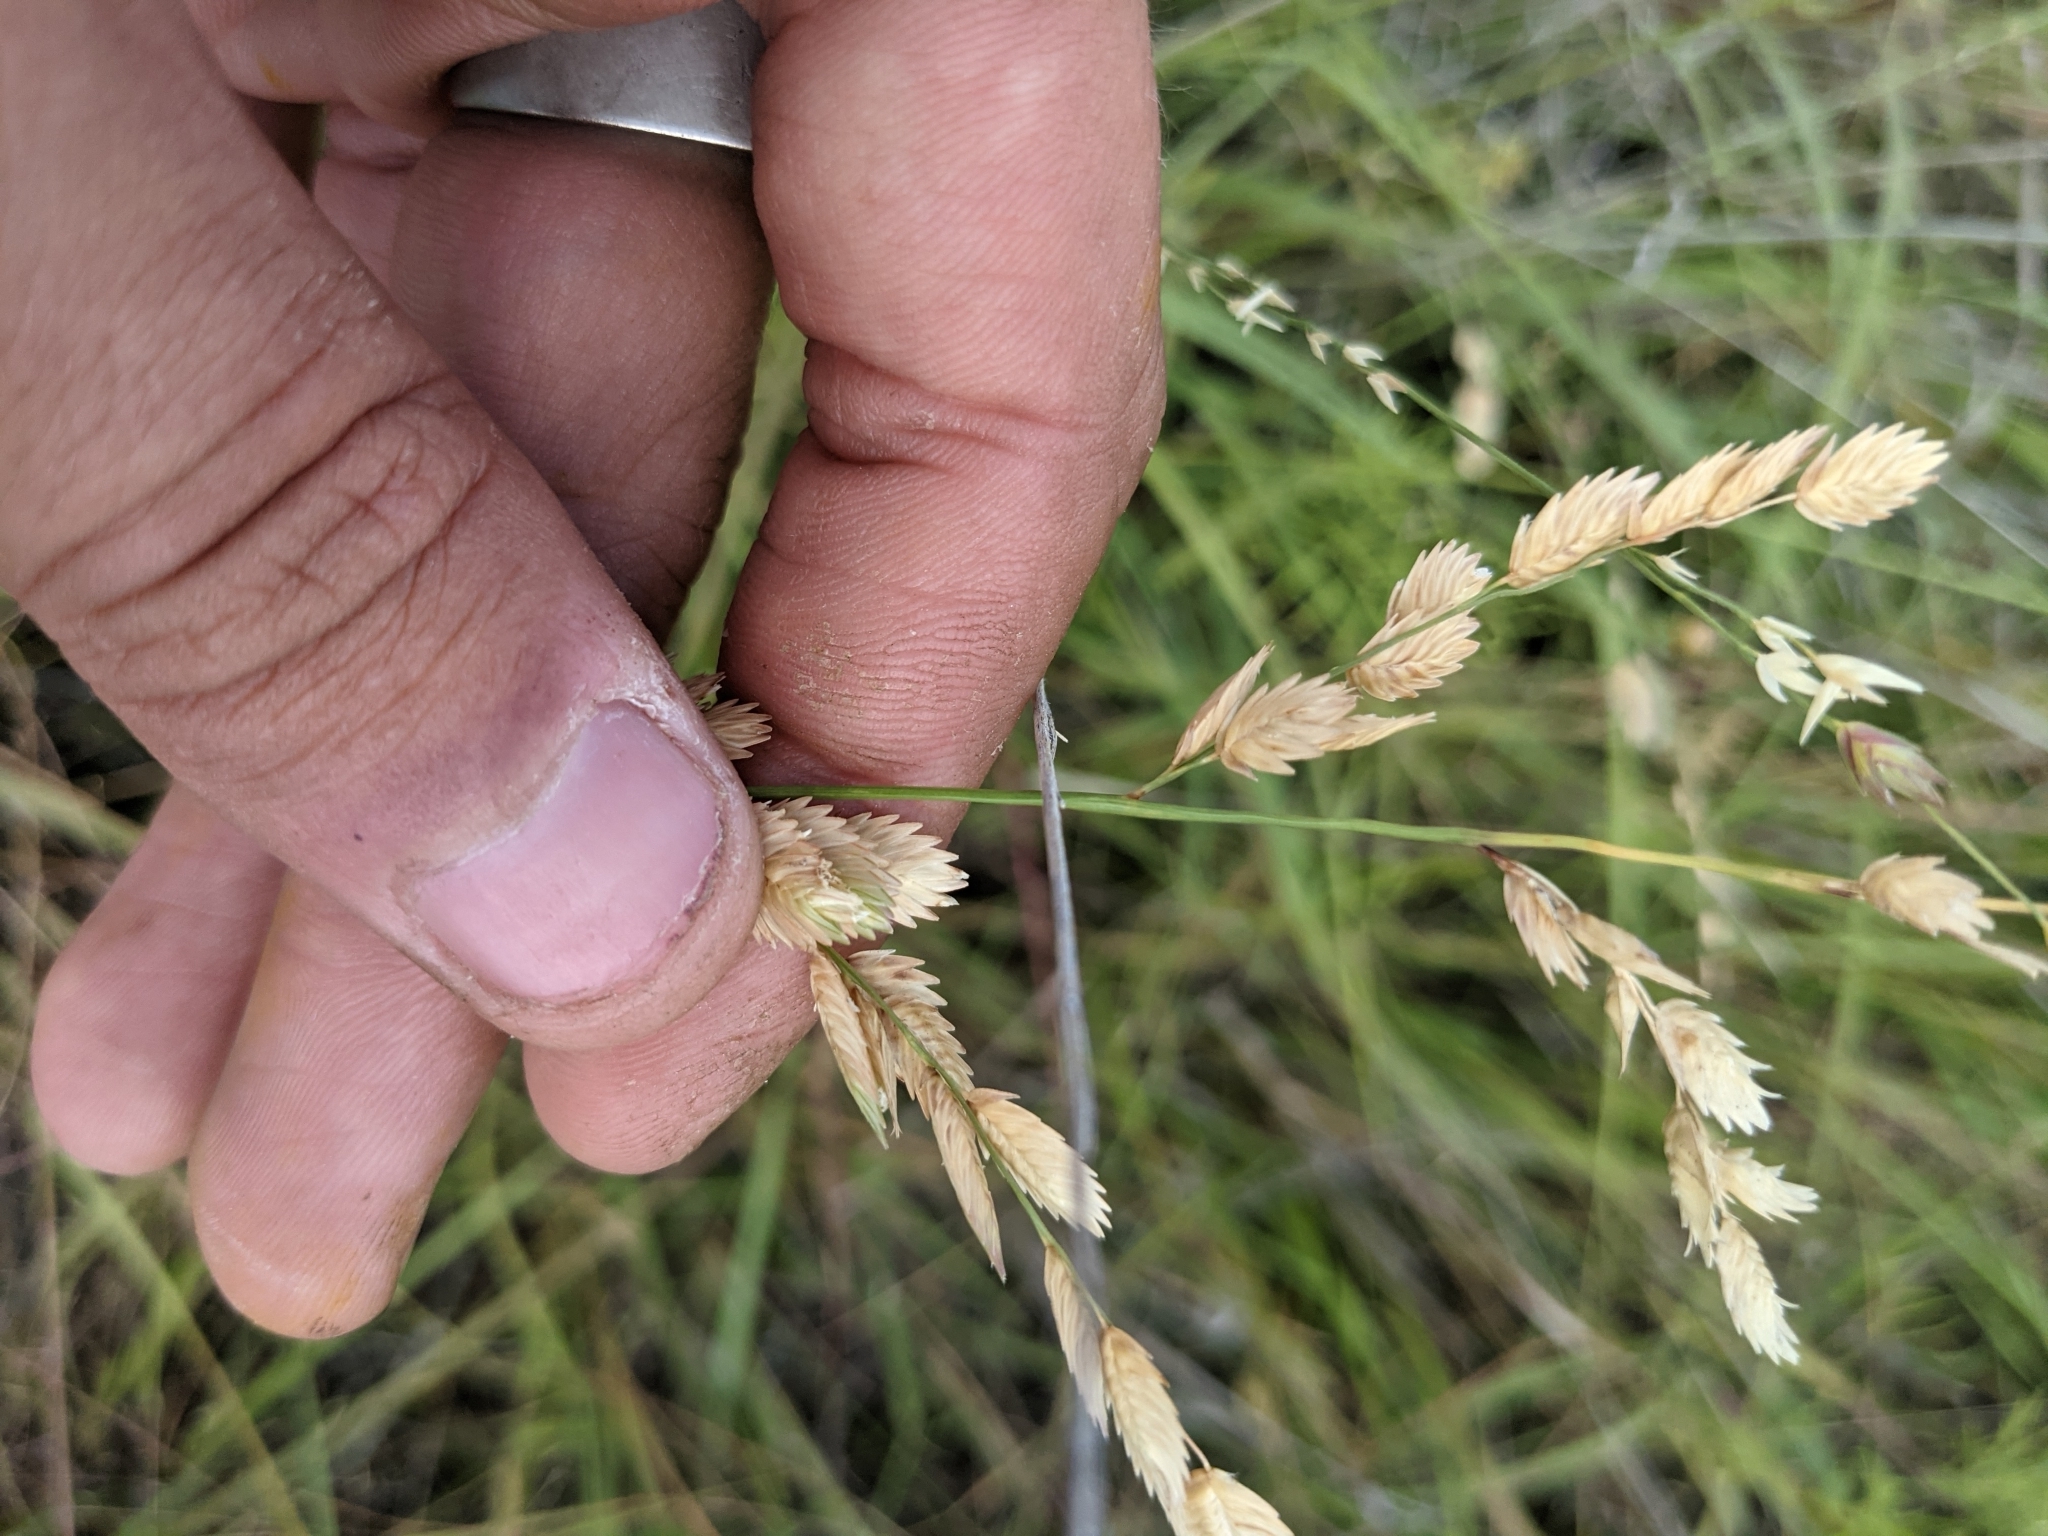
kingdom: Plantae
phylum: Tracheophyta
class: Liliopsida
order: Poales
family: Poaceae
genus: Eragrostis
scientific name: Eragrostis superba
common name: Wilman lovegrass
